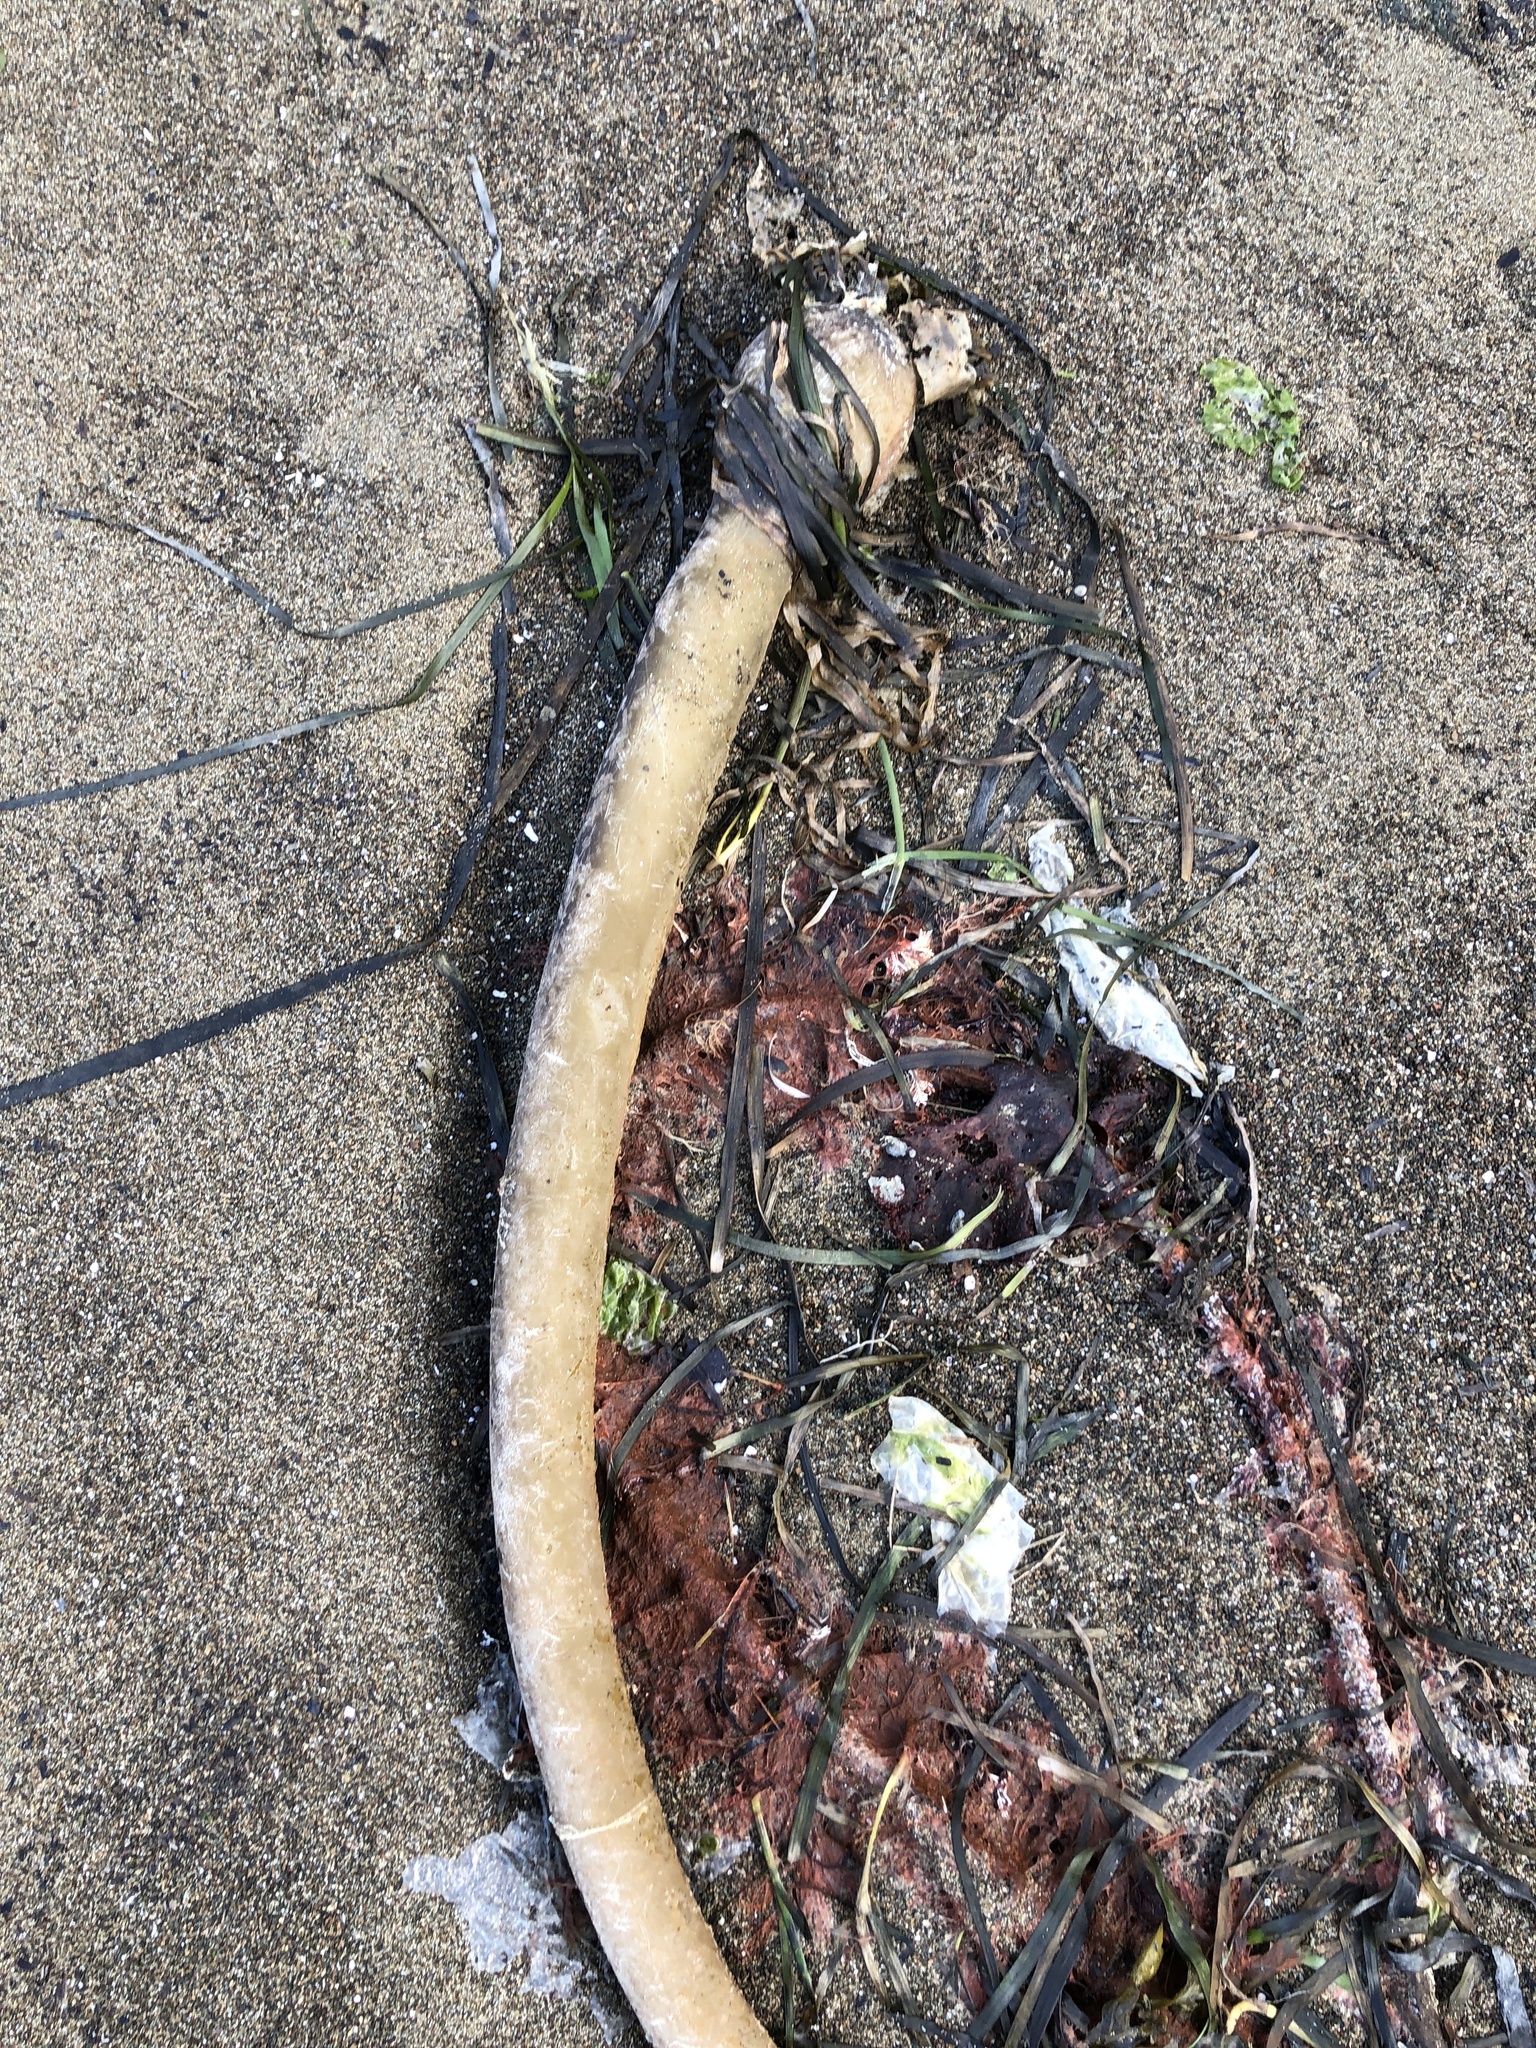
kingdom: Chromista
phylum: Ochrophyta
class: Phaeophyceae
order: Laminariales
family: Laminariaceae
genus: Nereocystis
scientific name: Nereocystis luetkeana
